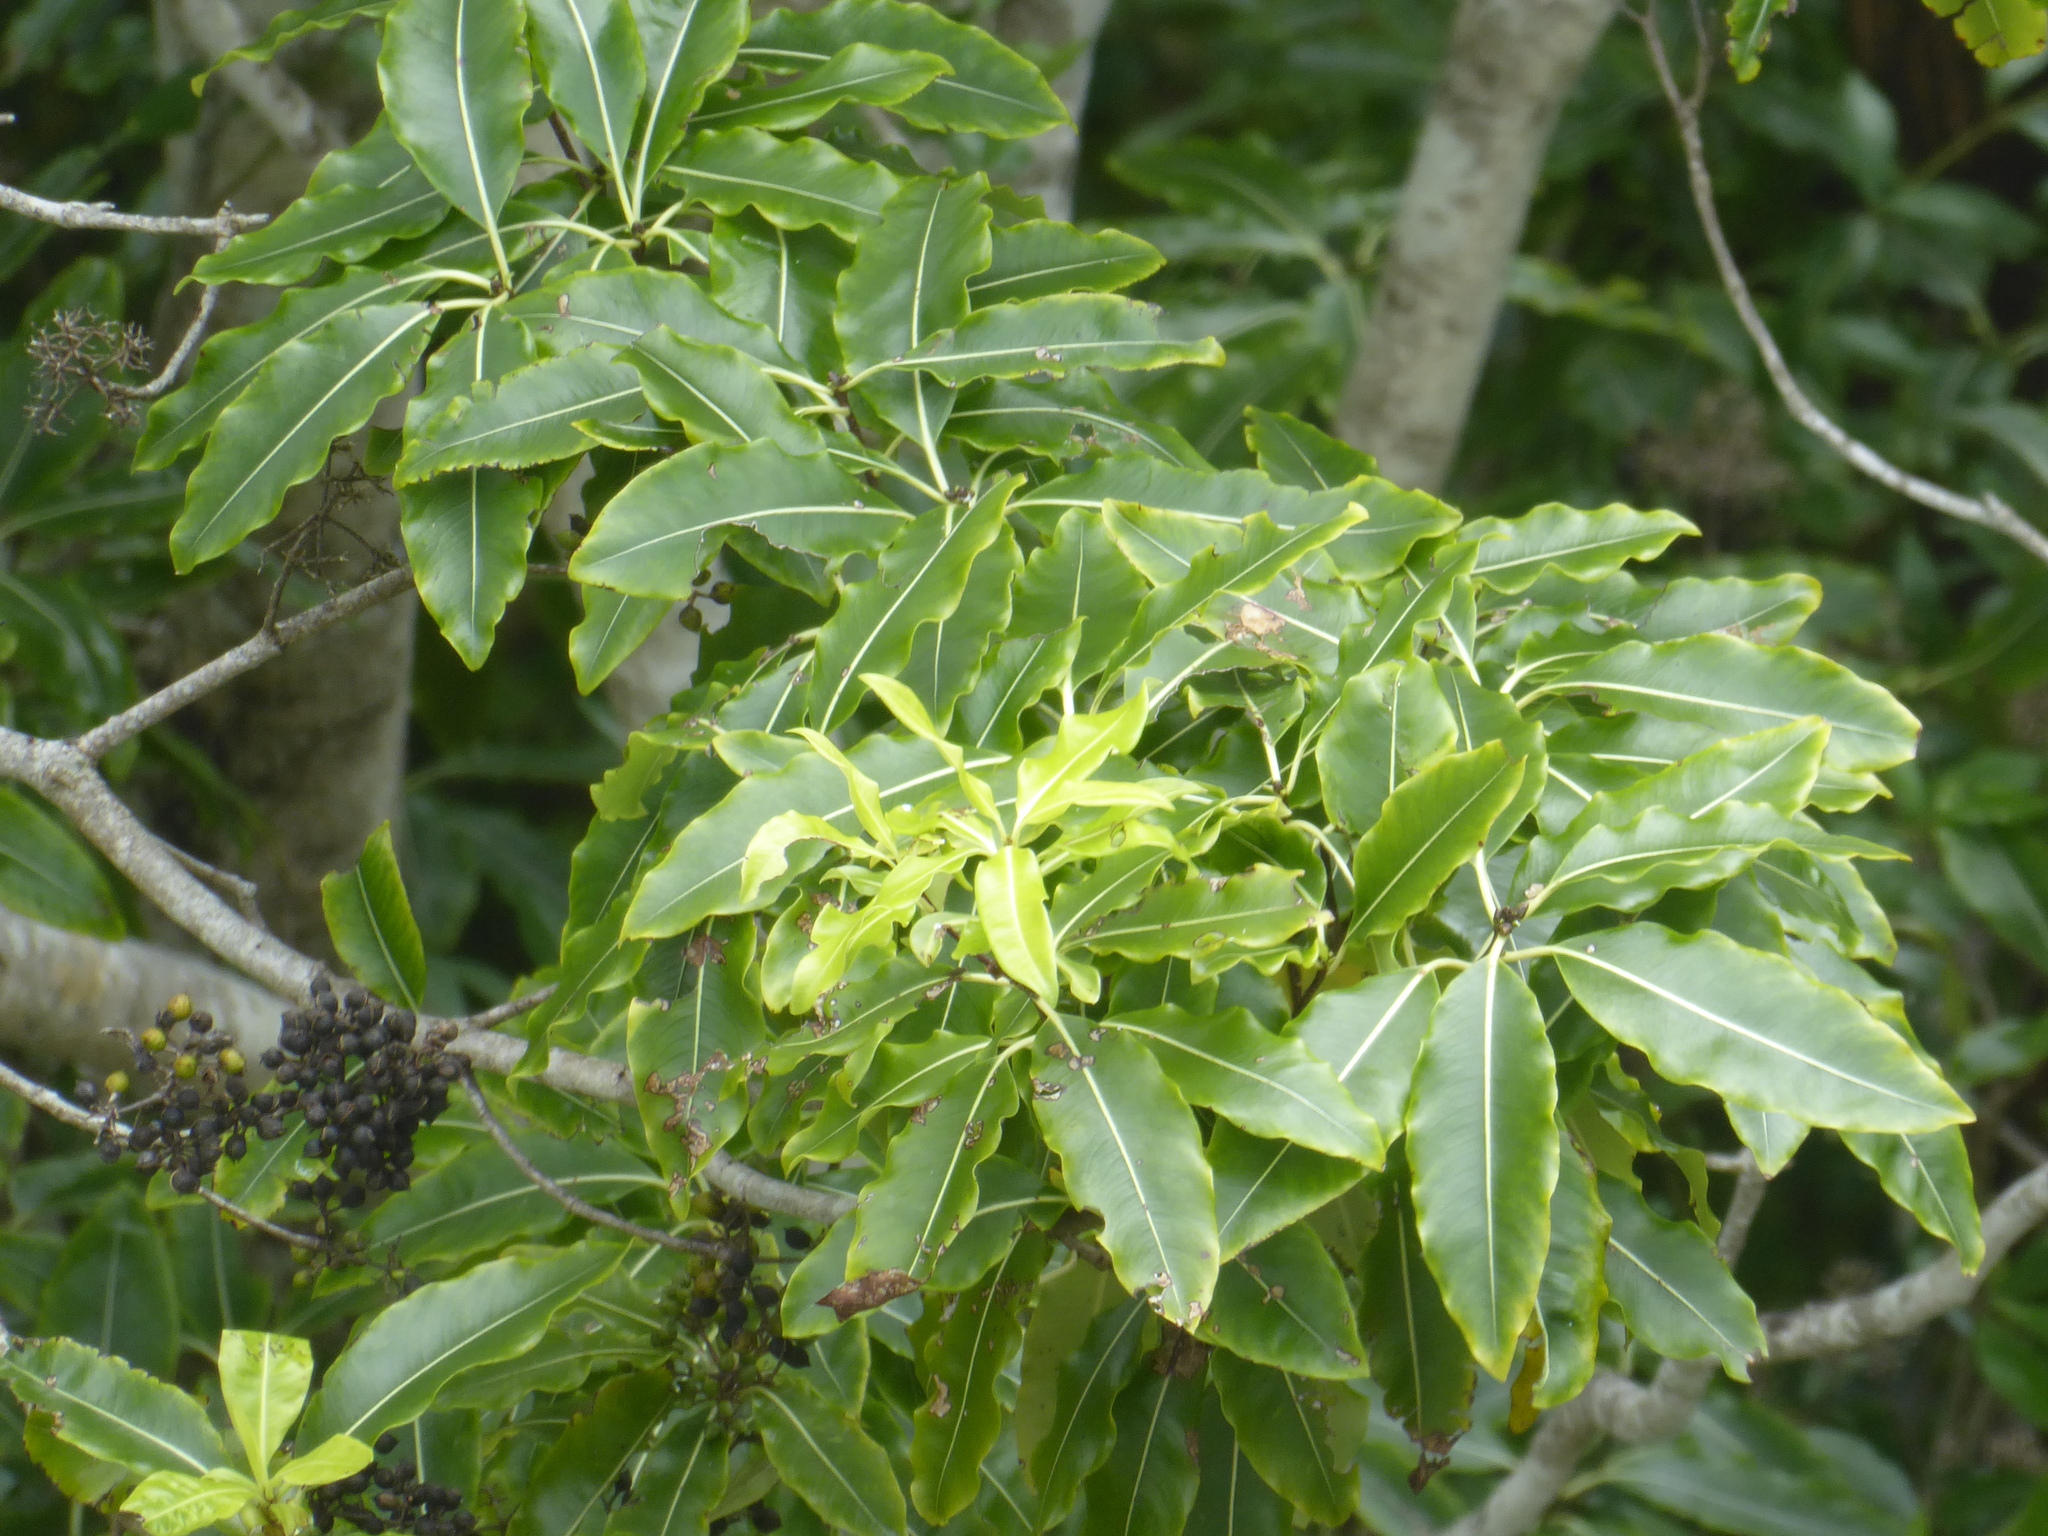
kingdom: Plantae
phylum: Tracheophyta
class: Magnoliopsida
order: Apiales
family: Pittosporaceae
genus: Pittosporum
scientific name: Pittosporum eugenioides
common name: Lemonwood
